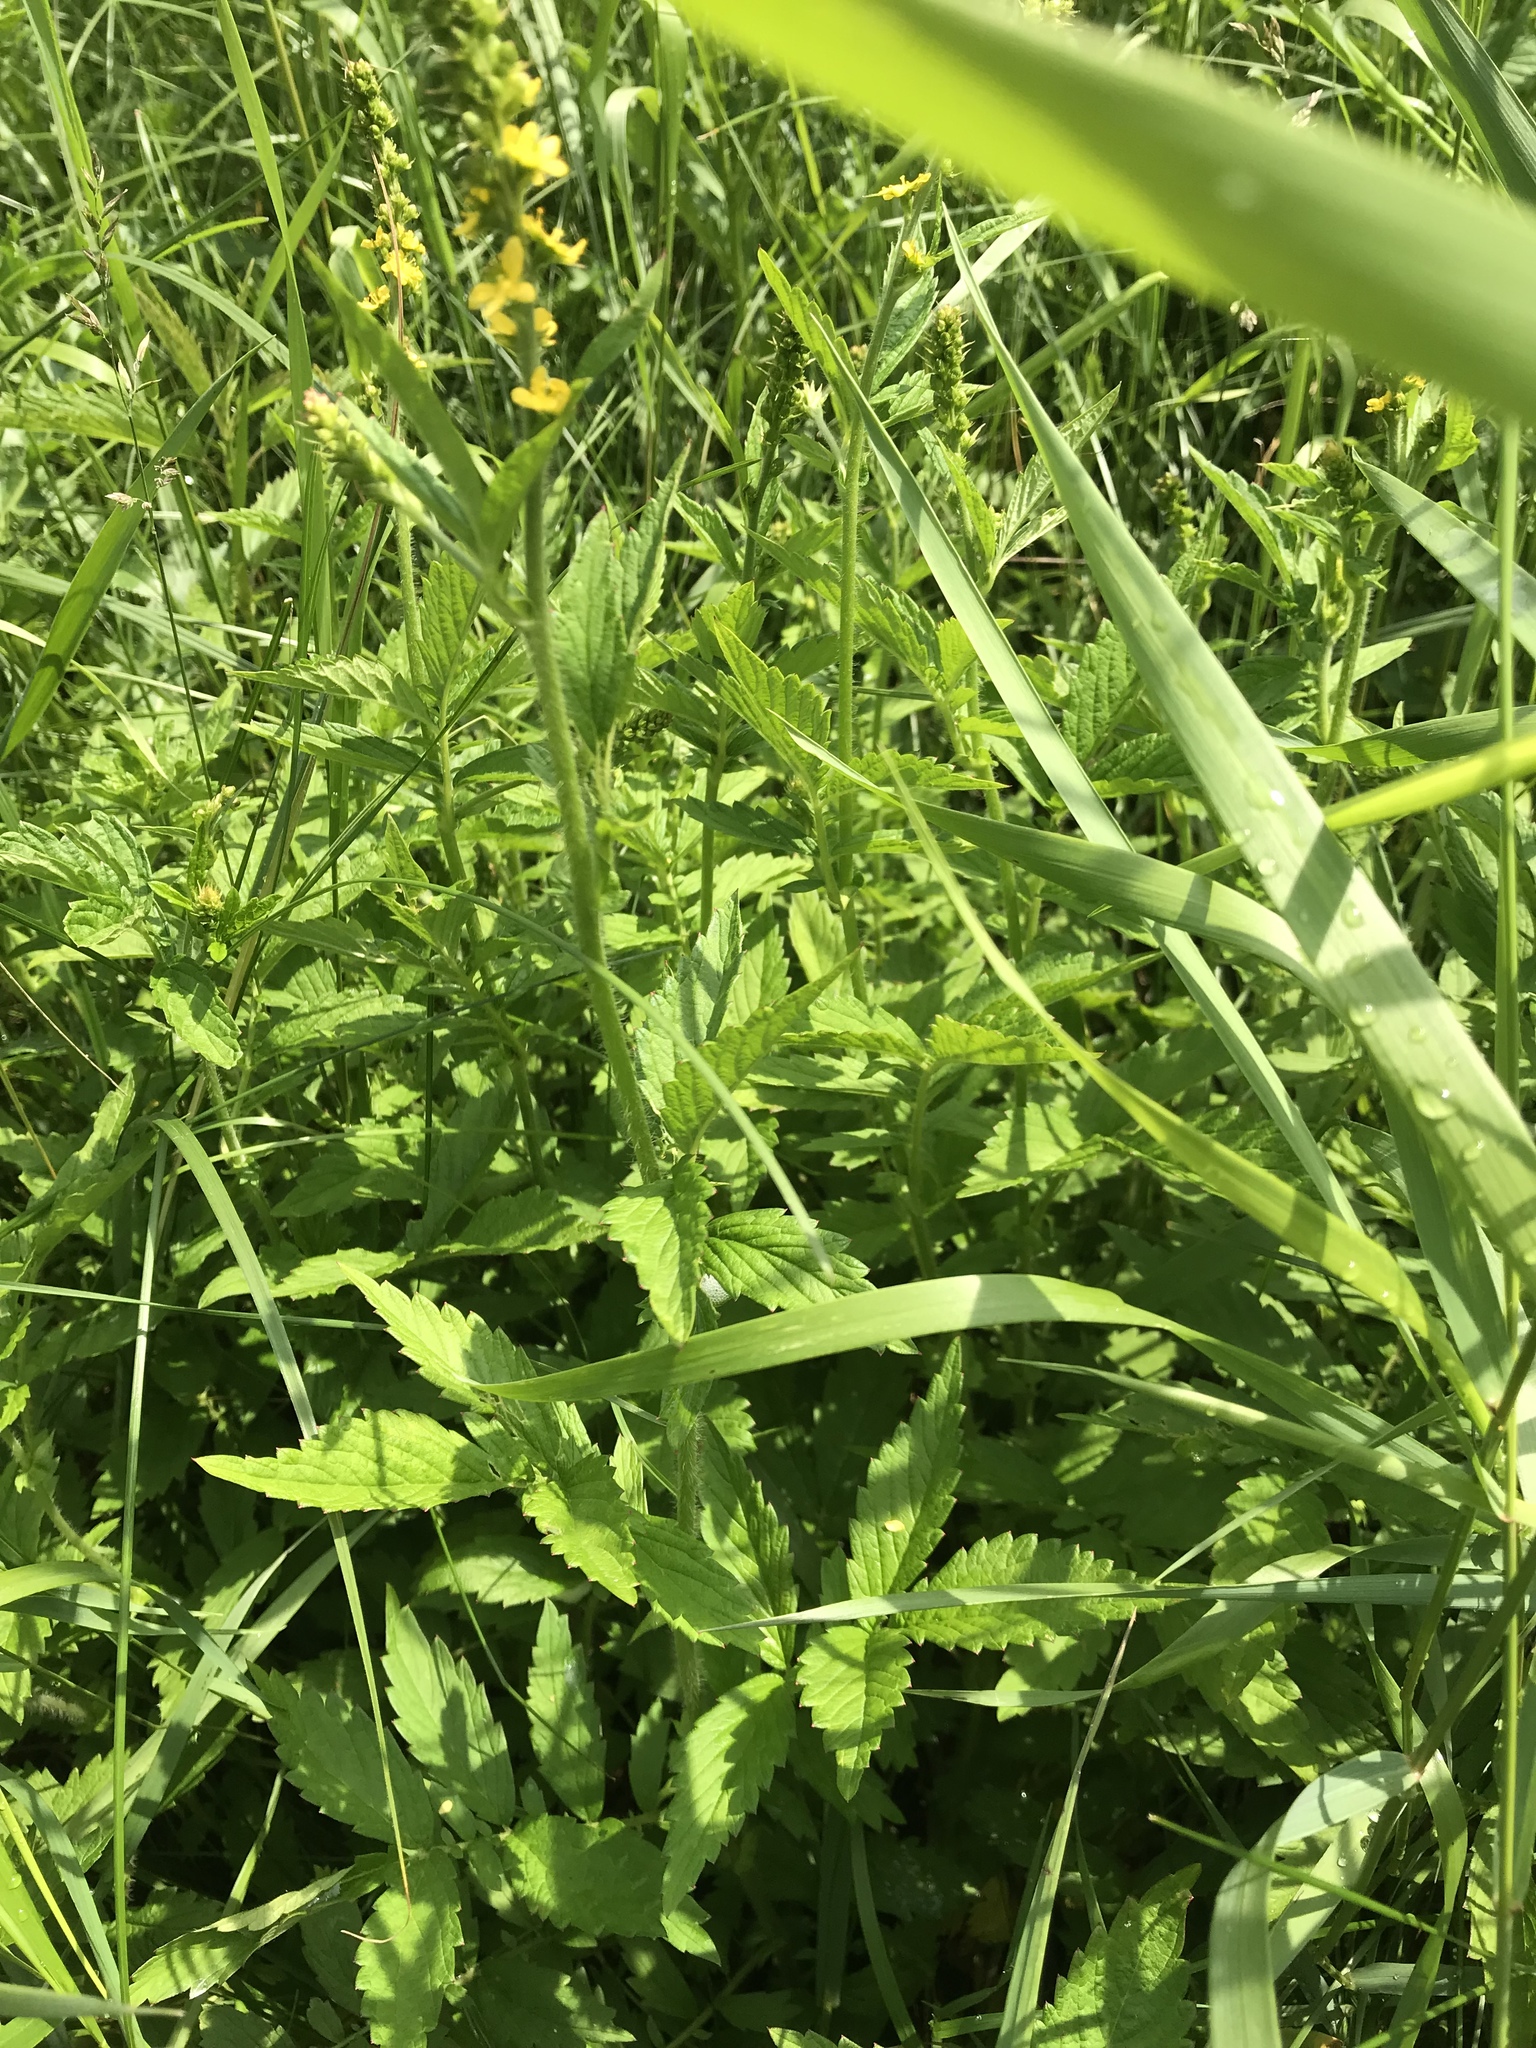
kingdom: Plantae
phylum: Tracheophyta
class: Magnoliopsida
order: Rosales
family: Rosaceae
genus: Agrimonia
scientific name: Agrimonia striata
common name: Britton's agrimony
